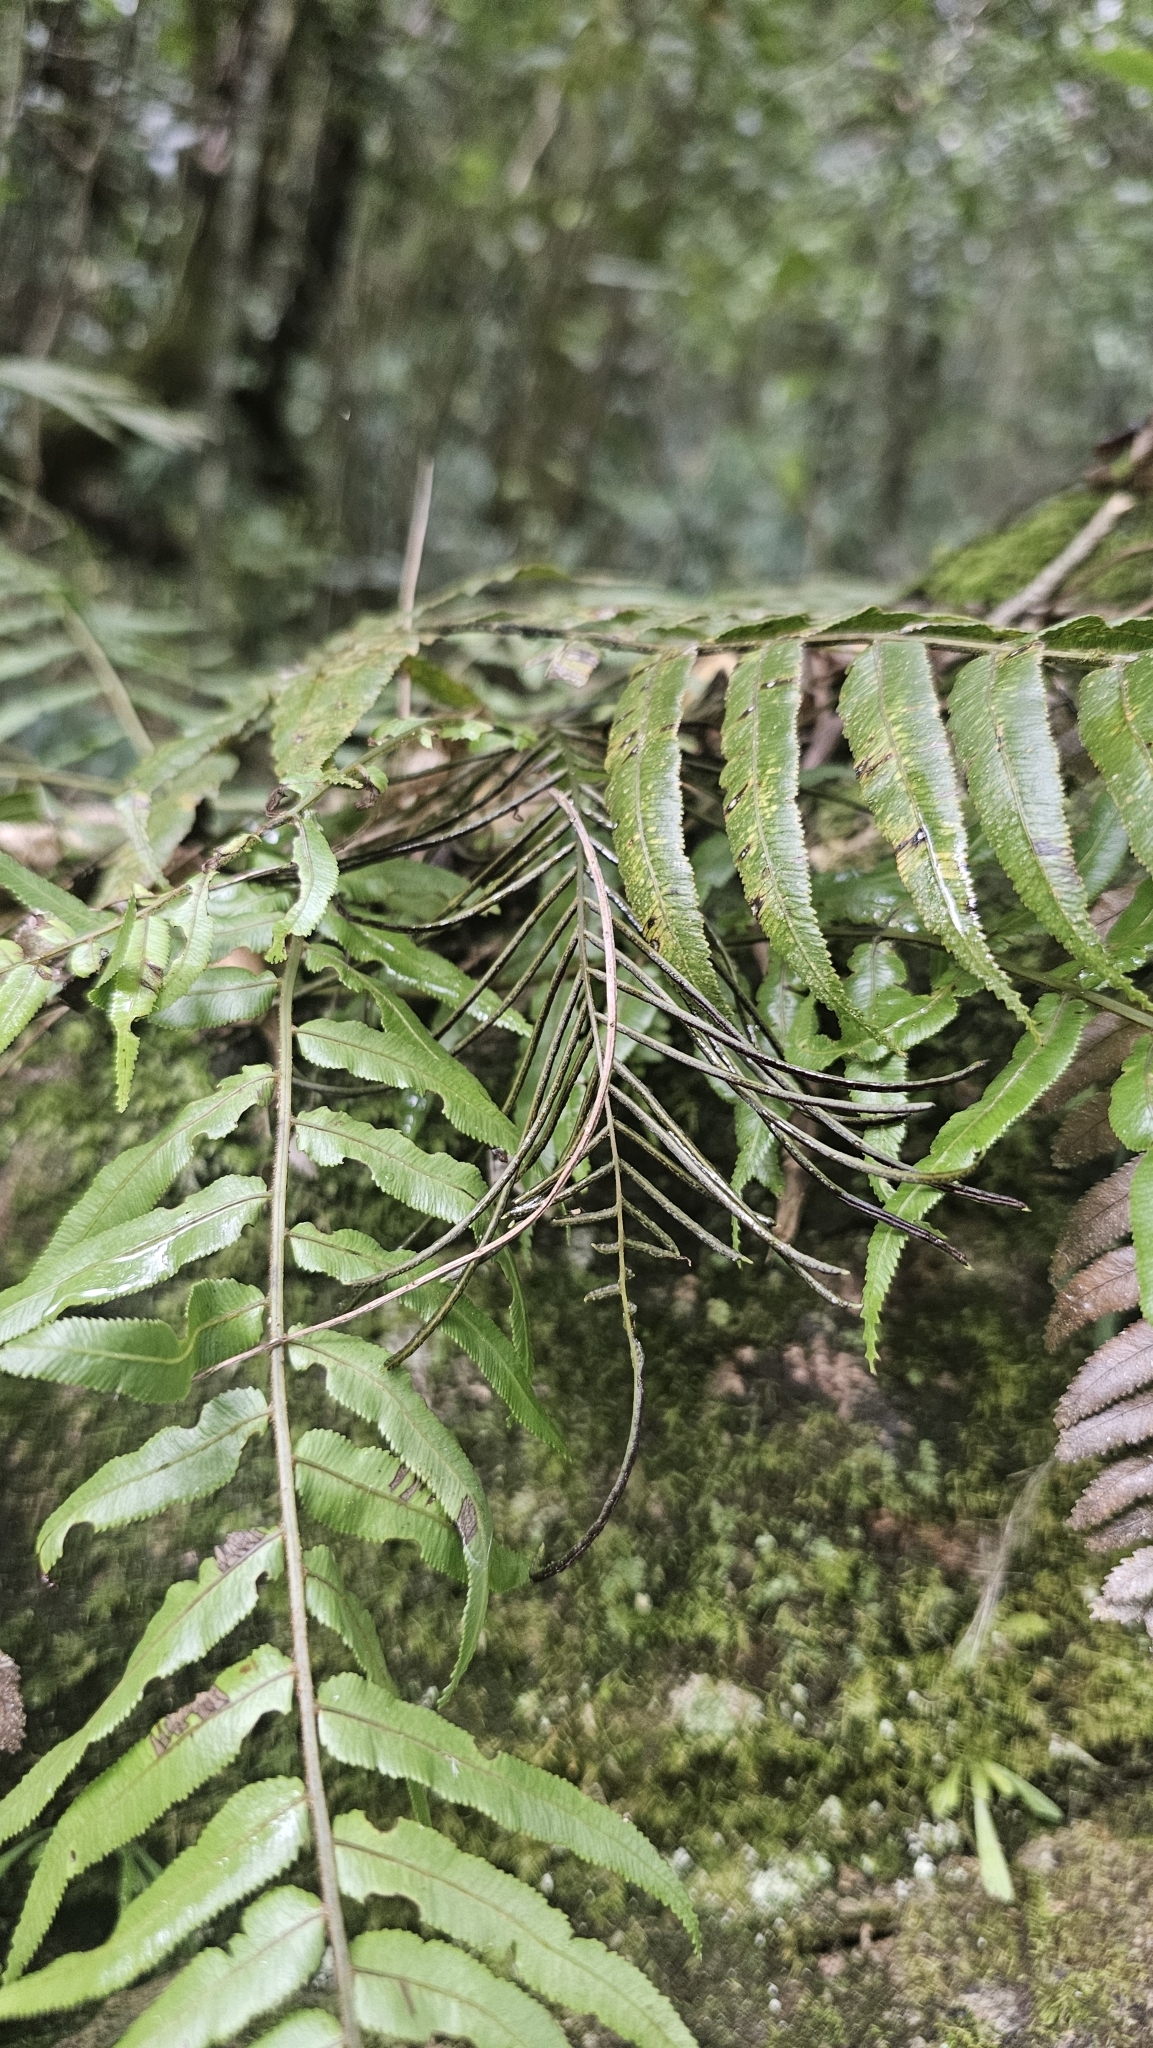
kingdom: Plantae
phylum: Tracheophyta
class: Polypodiopsida
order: Polypodiales
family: Blechnaceae
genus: Icarus
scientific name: Icarus filiformis
